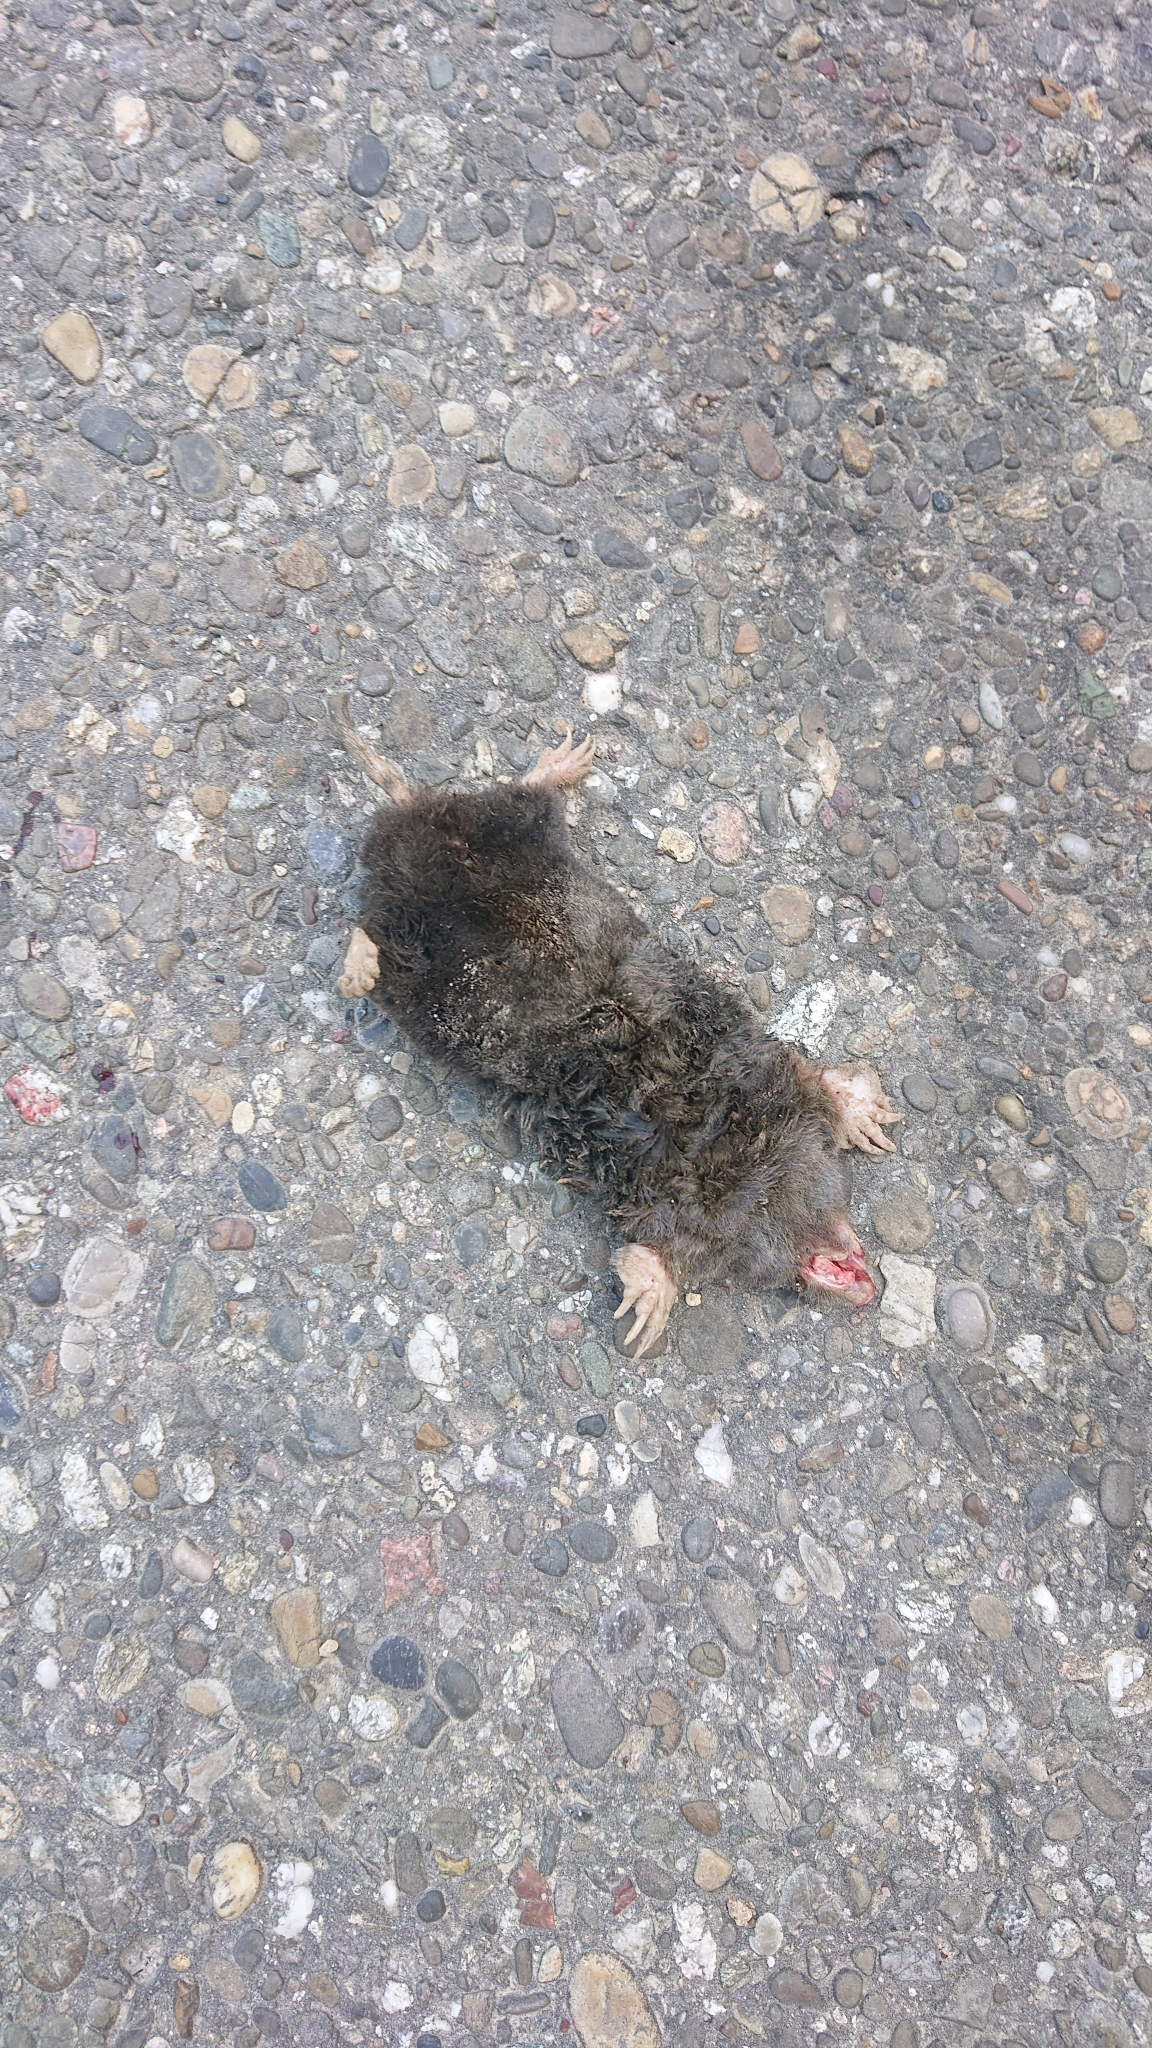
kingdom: Animalia
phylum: Chordata
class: Mammalia
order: Soricomorpha
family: Talpidae
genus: Talpa
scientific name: Talpa europaea
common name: European mole
